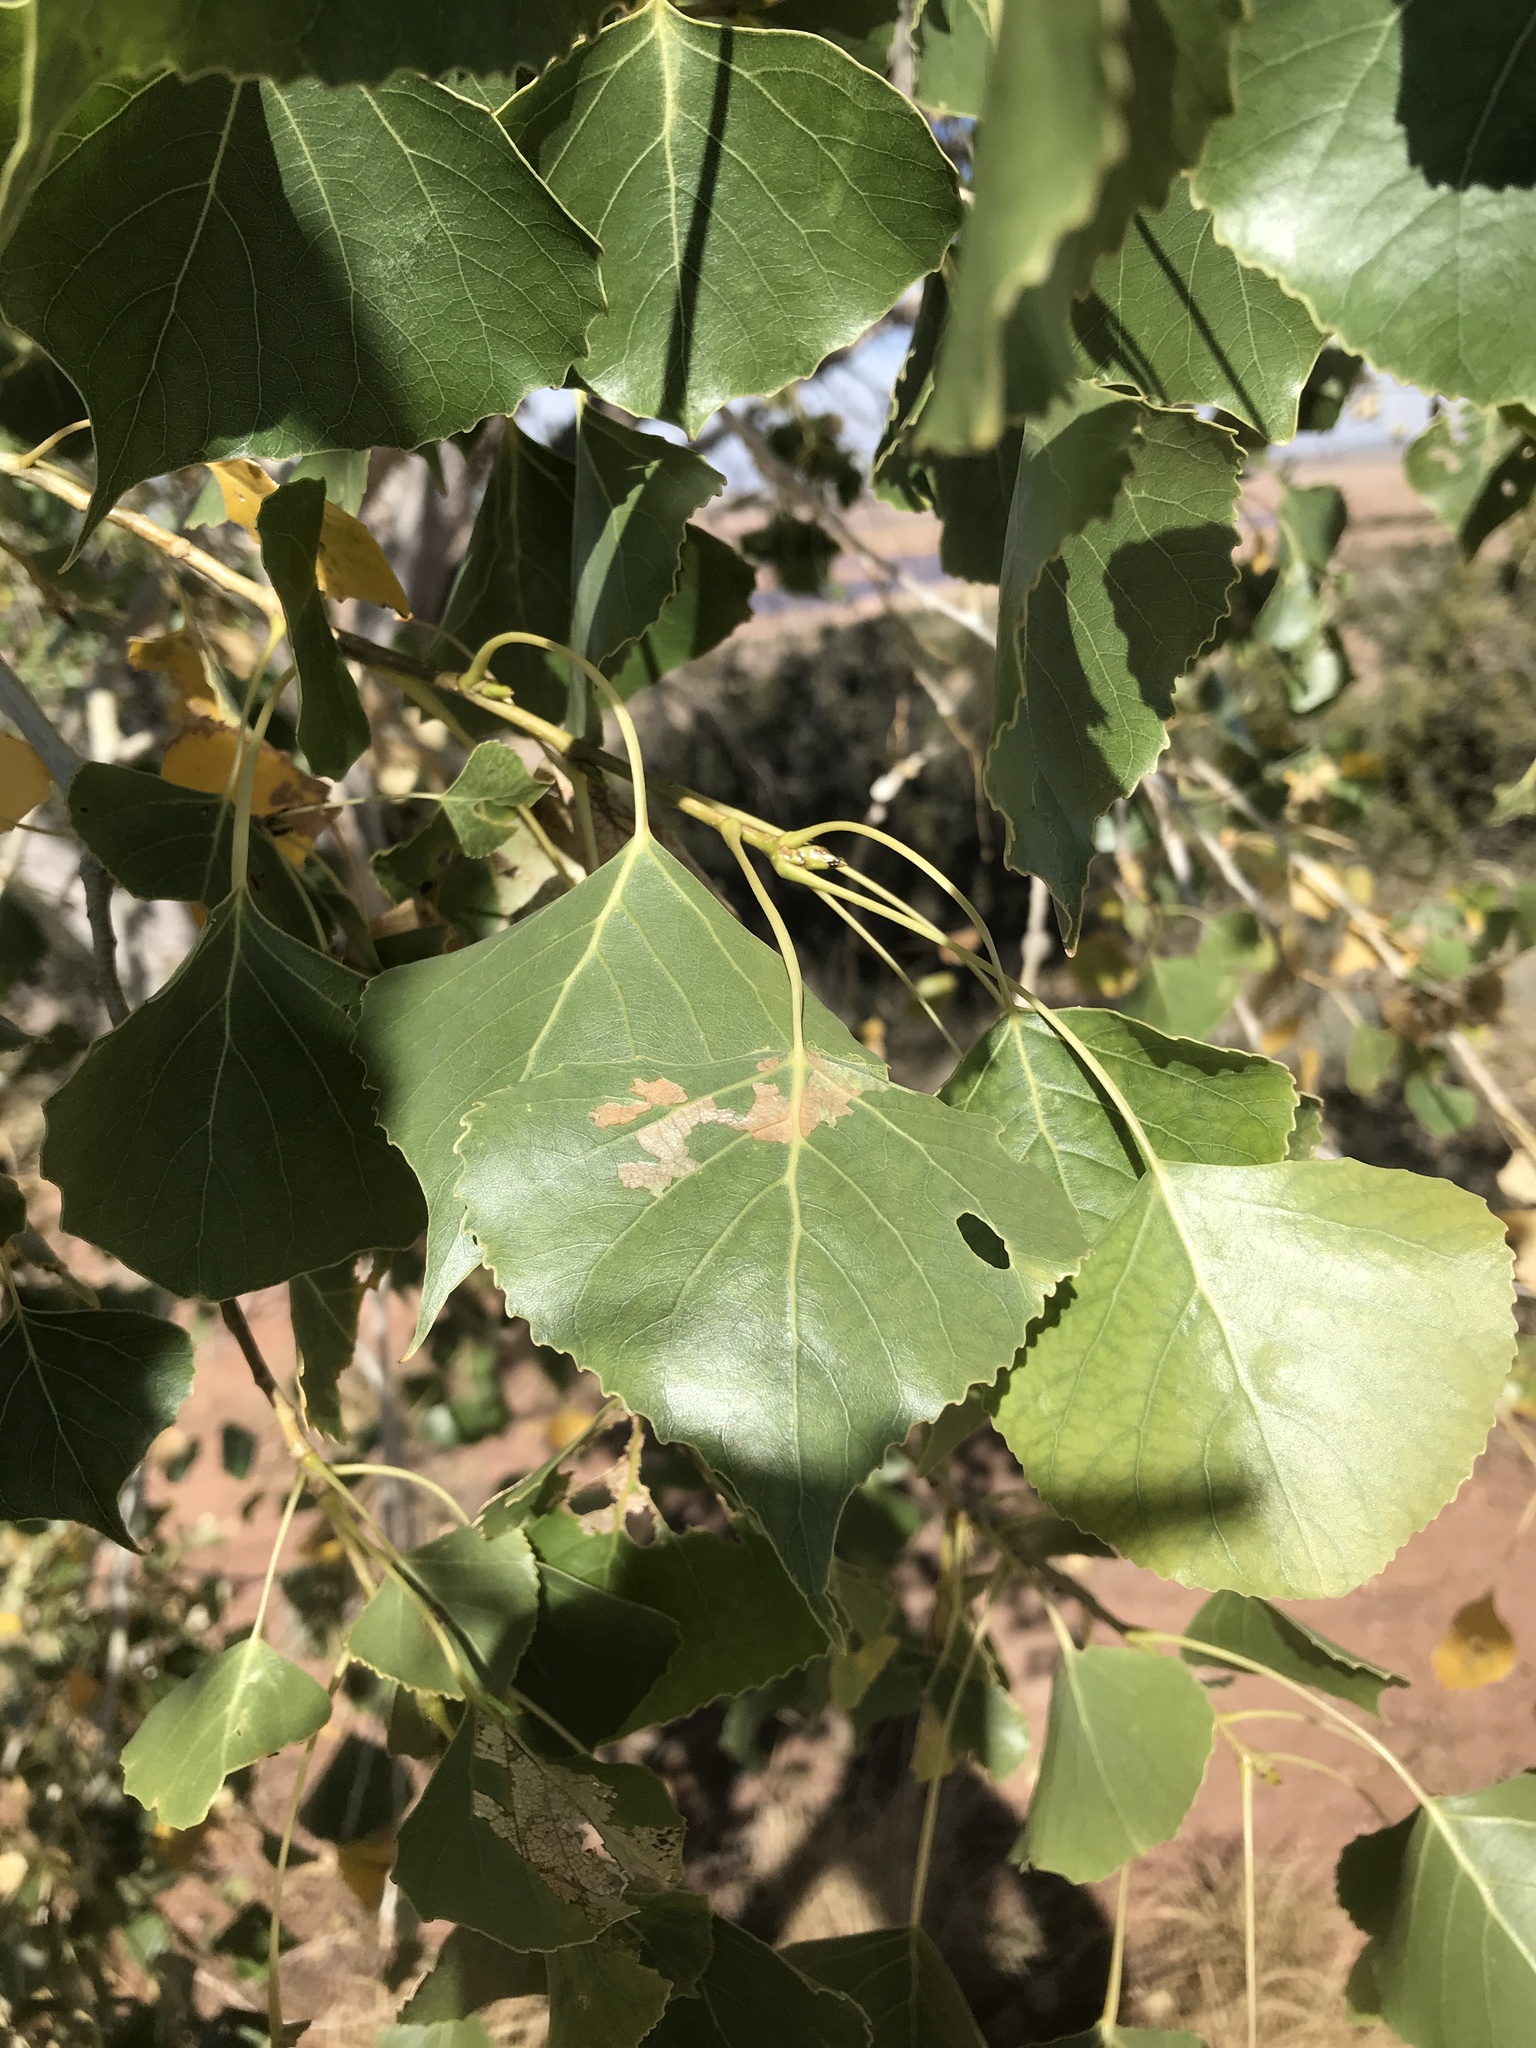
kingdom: Plantae
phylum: Tracheophyta
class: Magnoliopsida
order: Malpighiales
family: Salicaceae
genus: Populus
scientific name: Populus deltoides
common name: Eastern cottonwood
